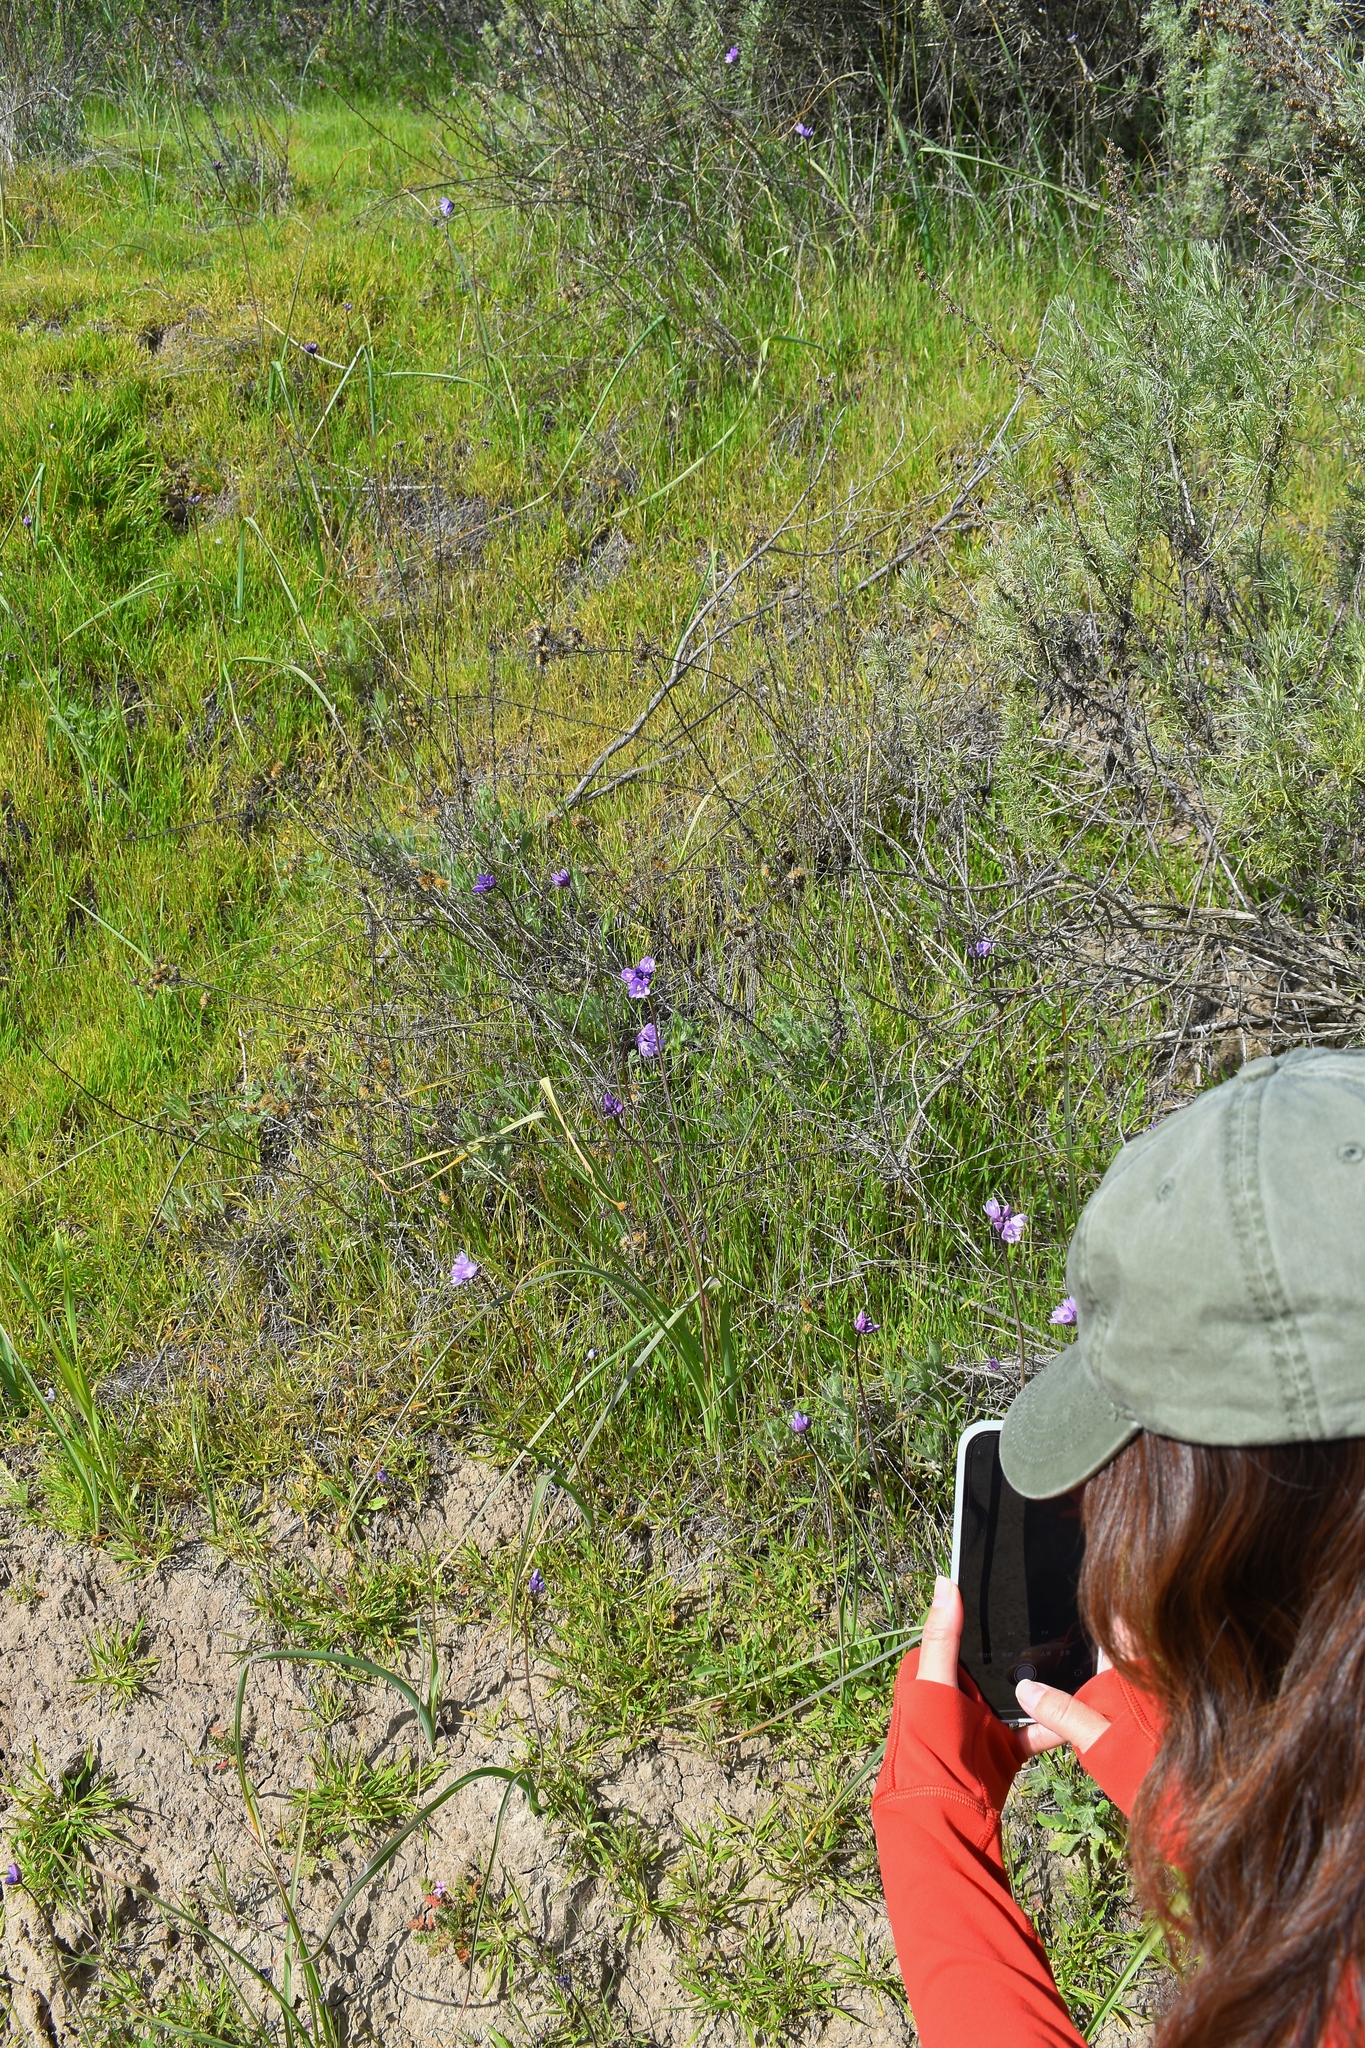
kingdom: Plantae
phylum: Tracheophyta
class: Liliopsida
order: Asparagales
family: Asparagaceae
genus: Dipterostemon
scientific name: Dipterostemon capitatus
